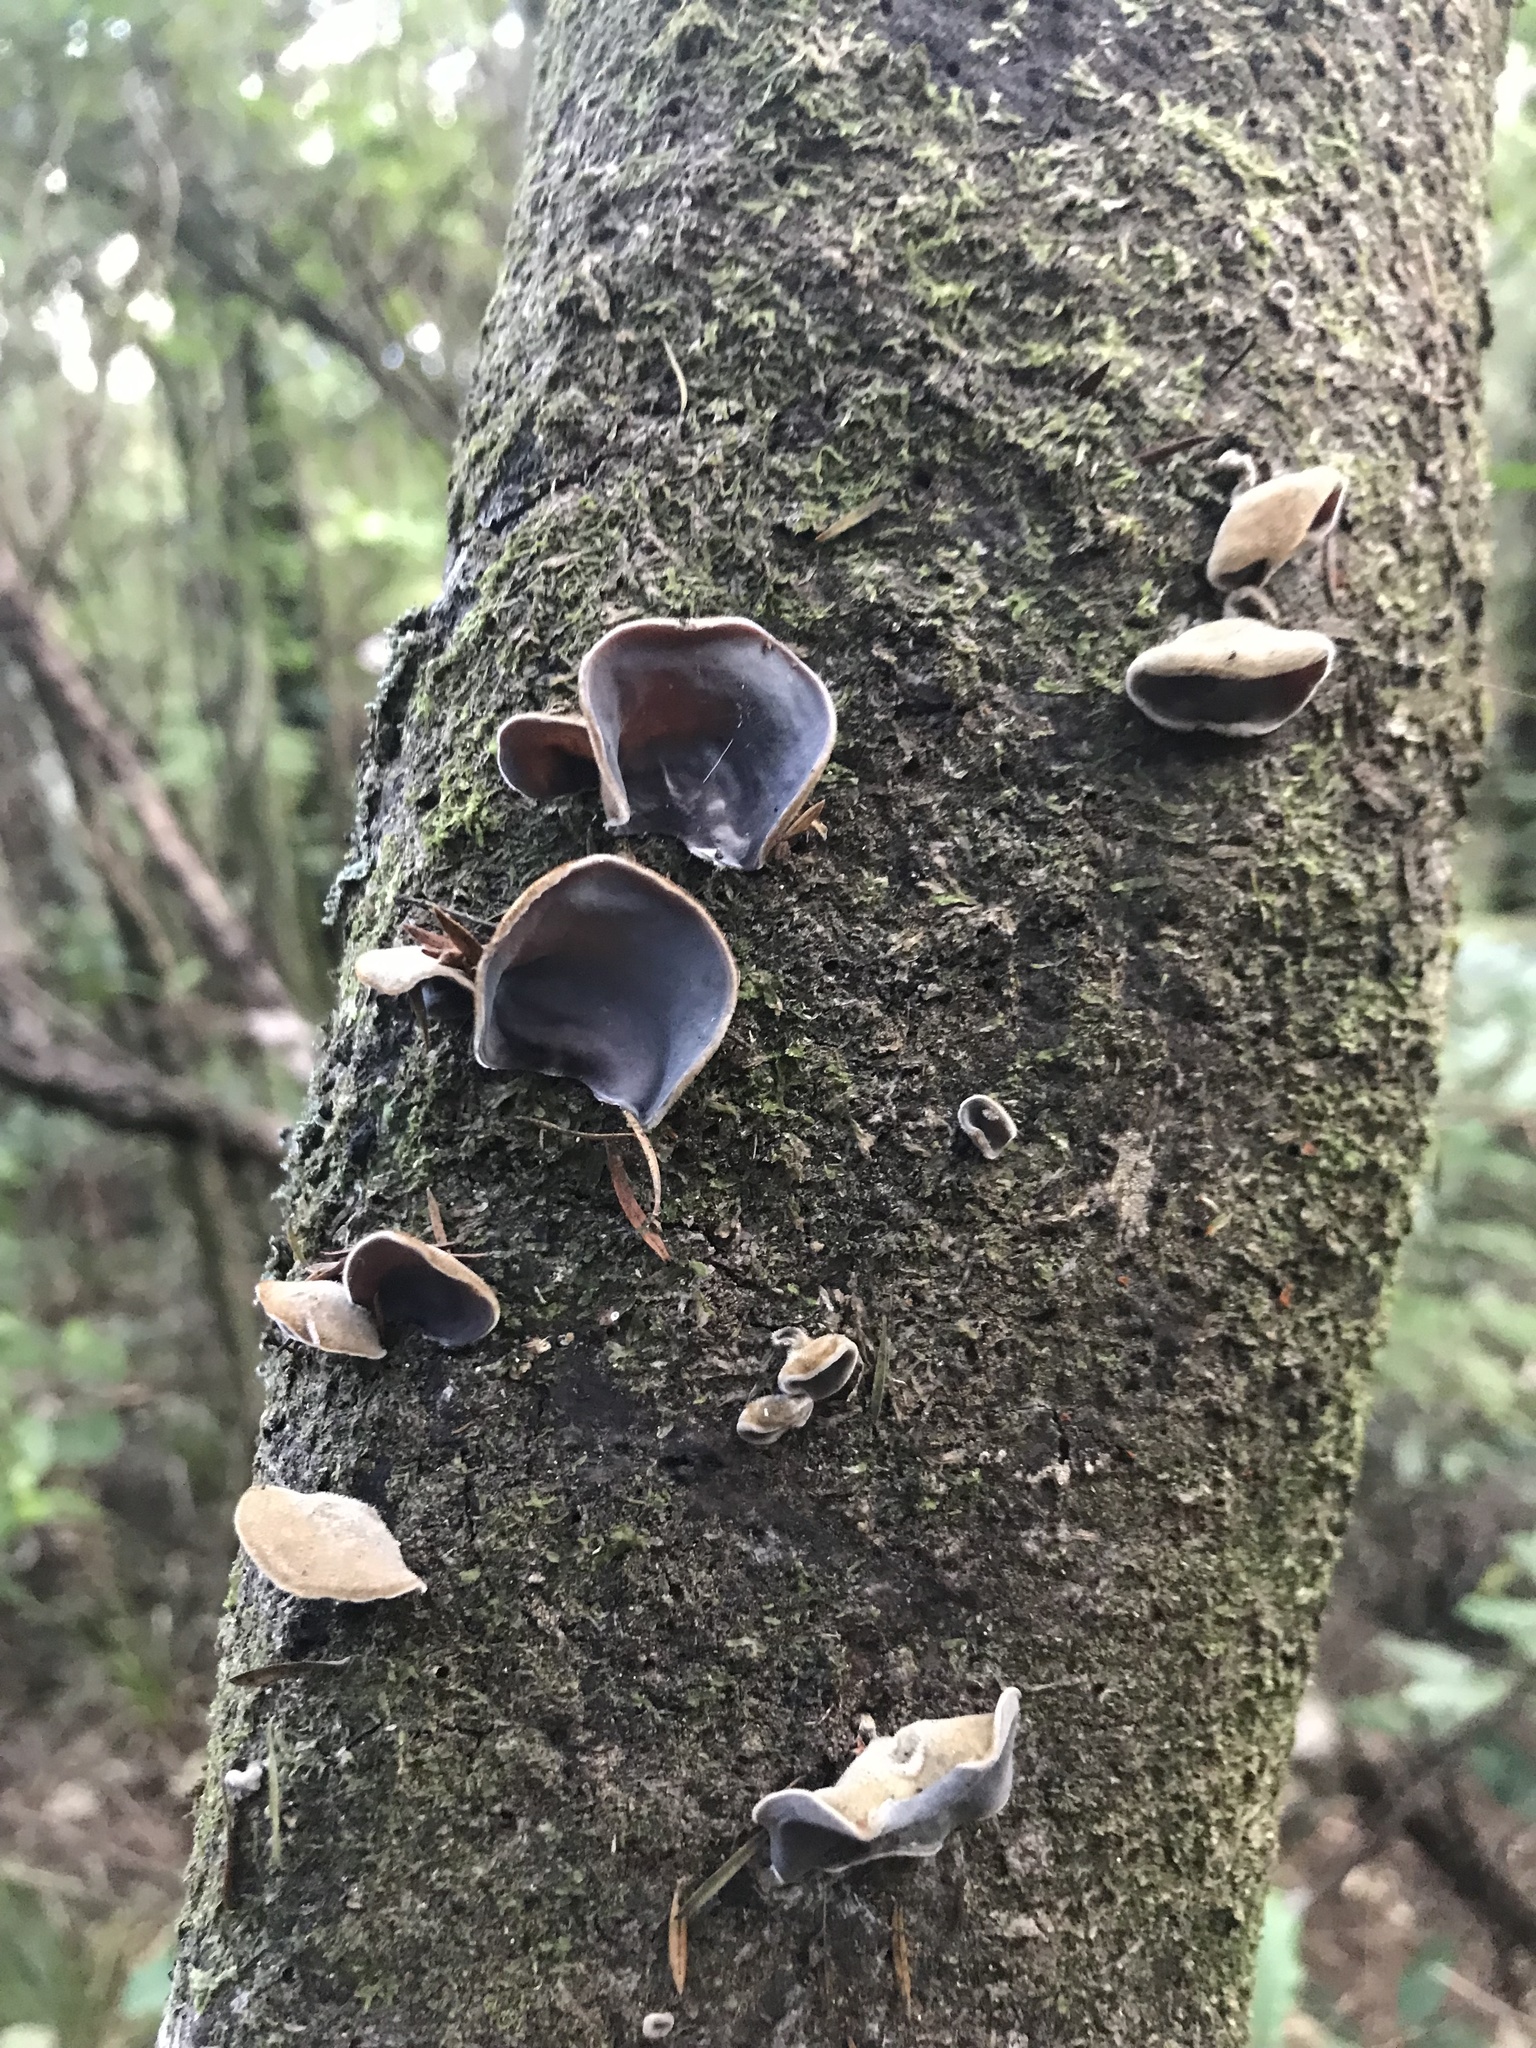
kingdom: Fungi
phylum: Basidiomycota
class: Agaricomycetes
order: Auriculariales
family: Auriculariaceae
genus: Auricularia
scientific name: Auricularia cornea
